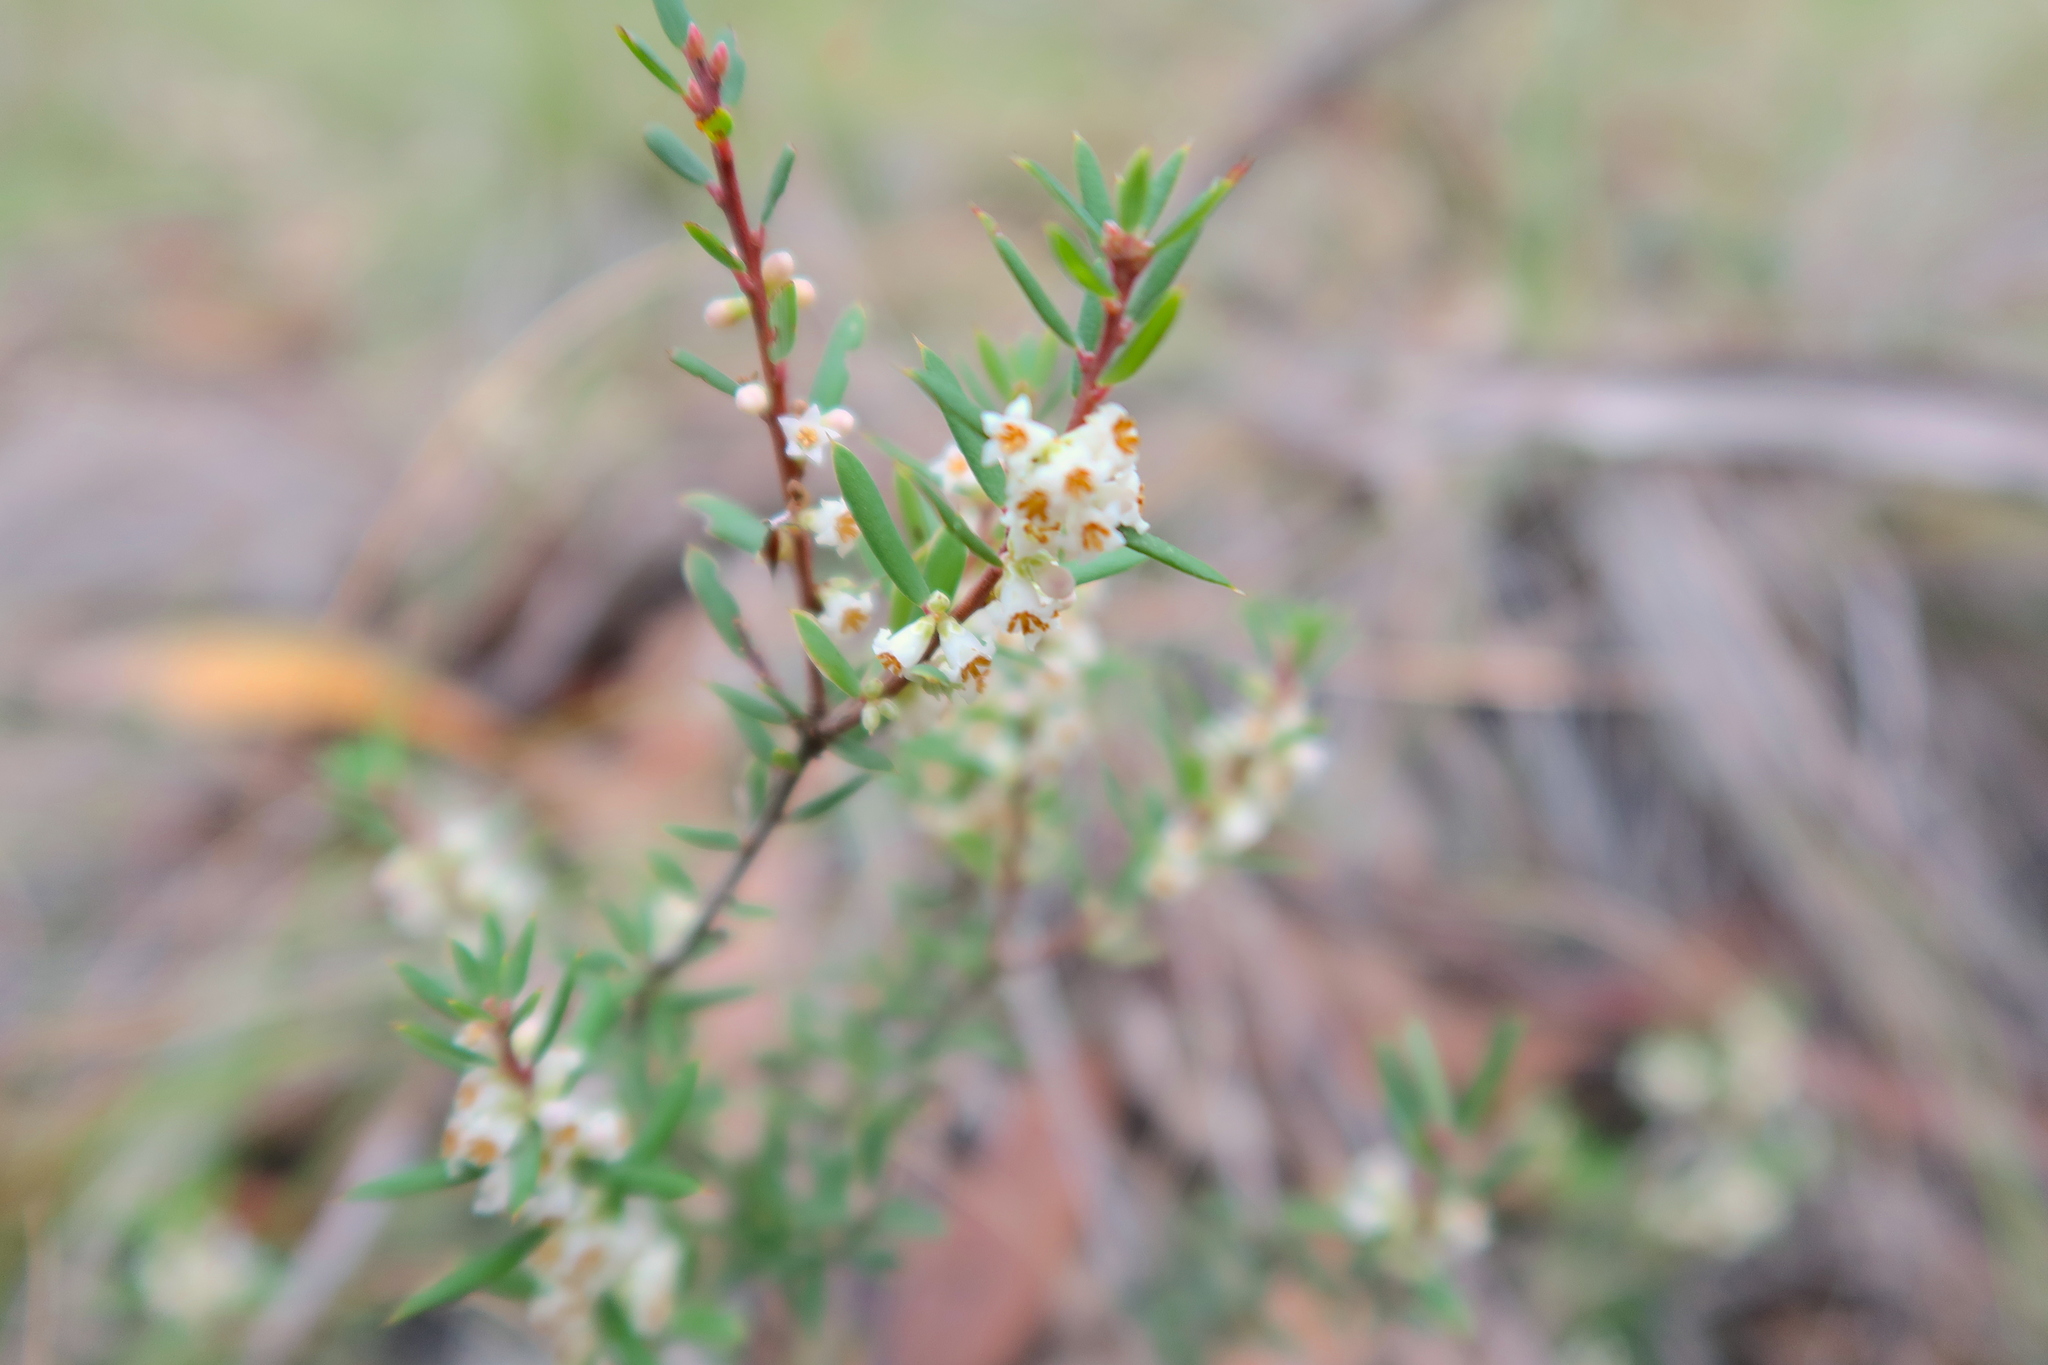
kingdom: Plantae
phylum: Tracheophyta
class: Magnoliopsida
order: Ericales
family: Ericaceae
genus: Monotoca
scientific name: Monotoca scoparia
